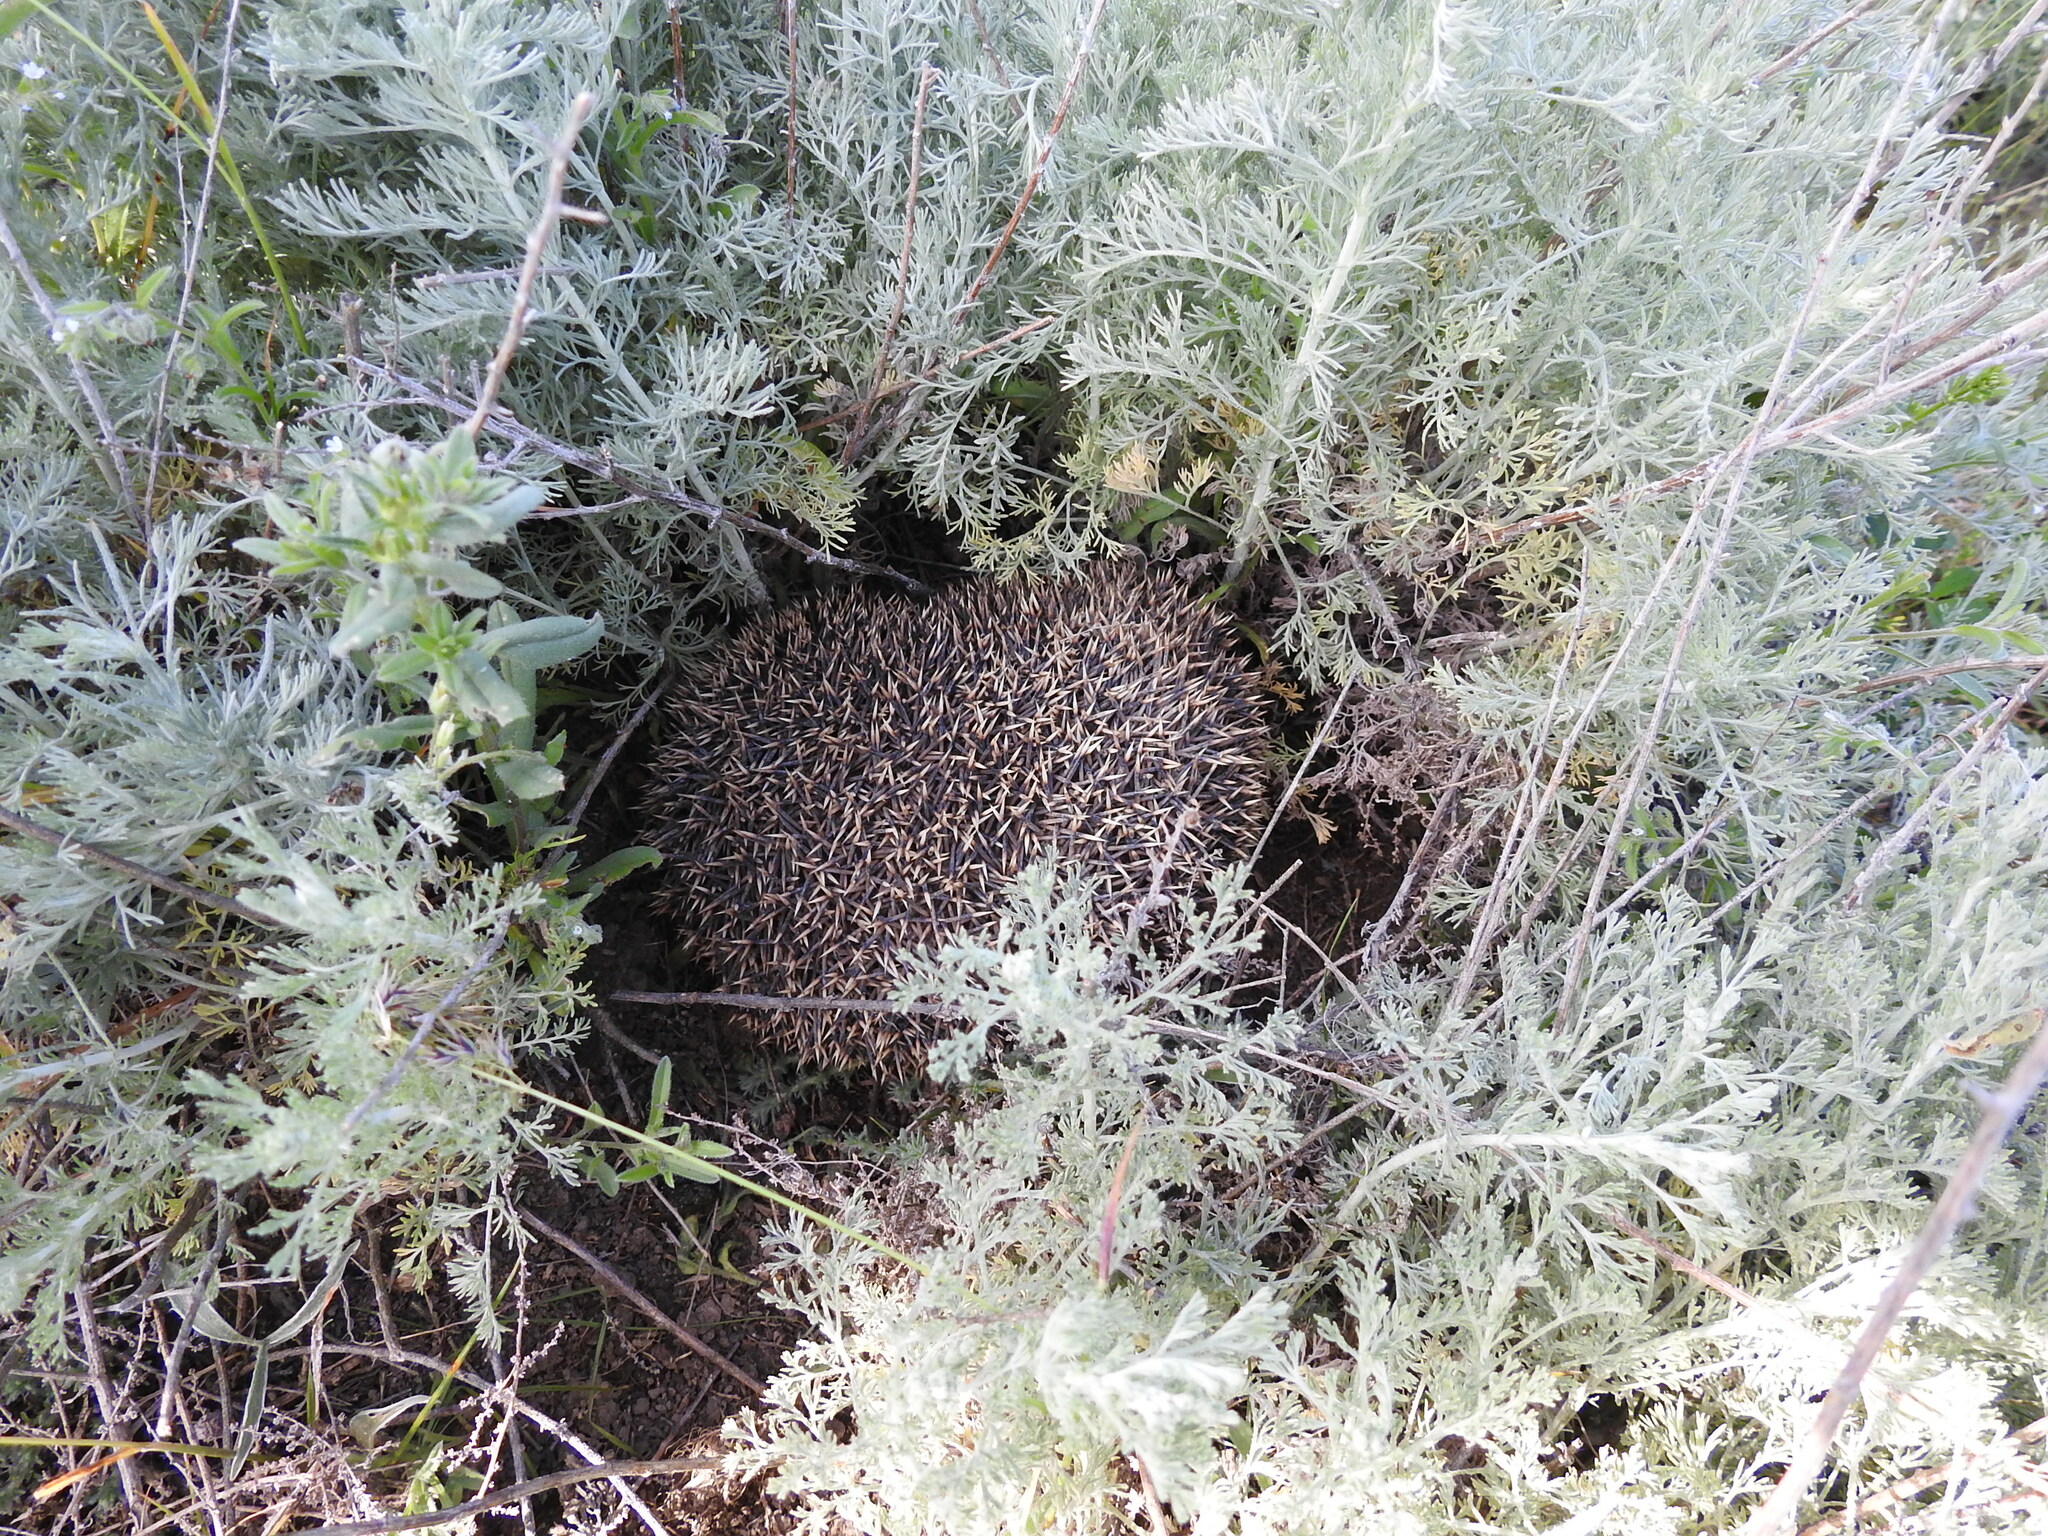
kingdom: Animalia
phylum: Chordata
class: Mammalia
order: Erinaceomorpha
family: Erinaceidae
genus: Erinaceus
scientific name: Erinaceus roumanicus
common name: Northern white-breasted hedgehog
